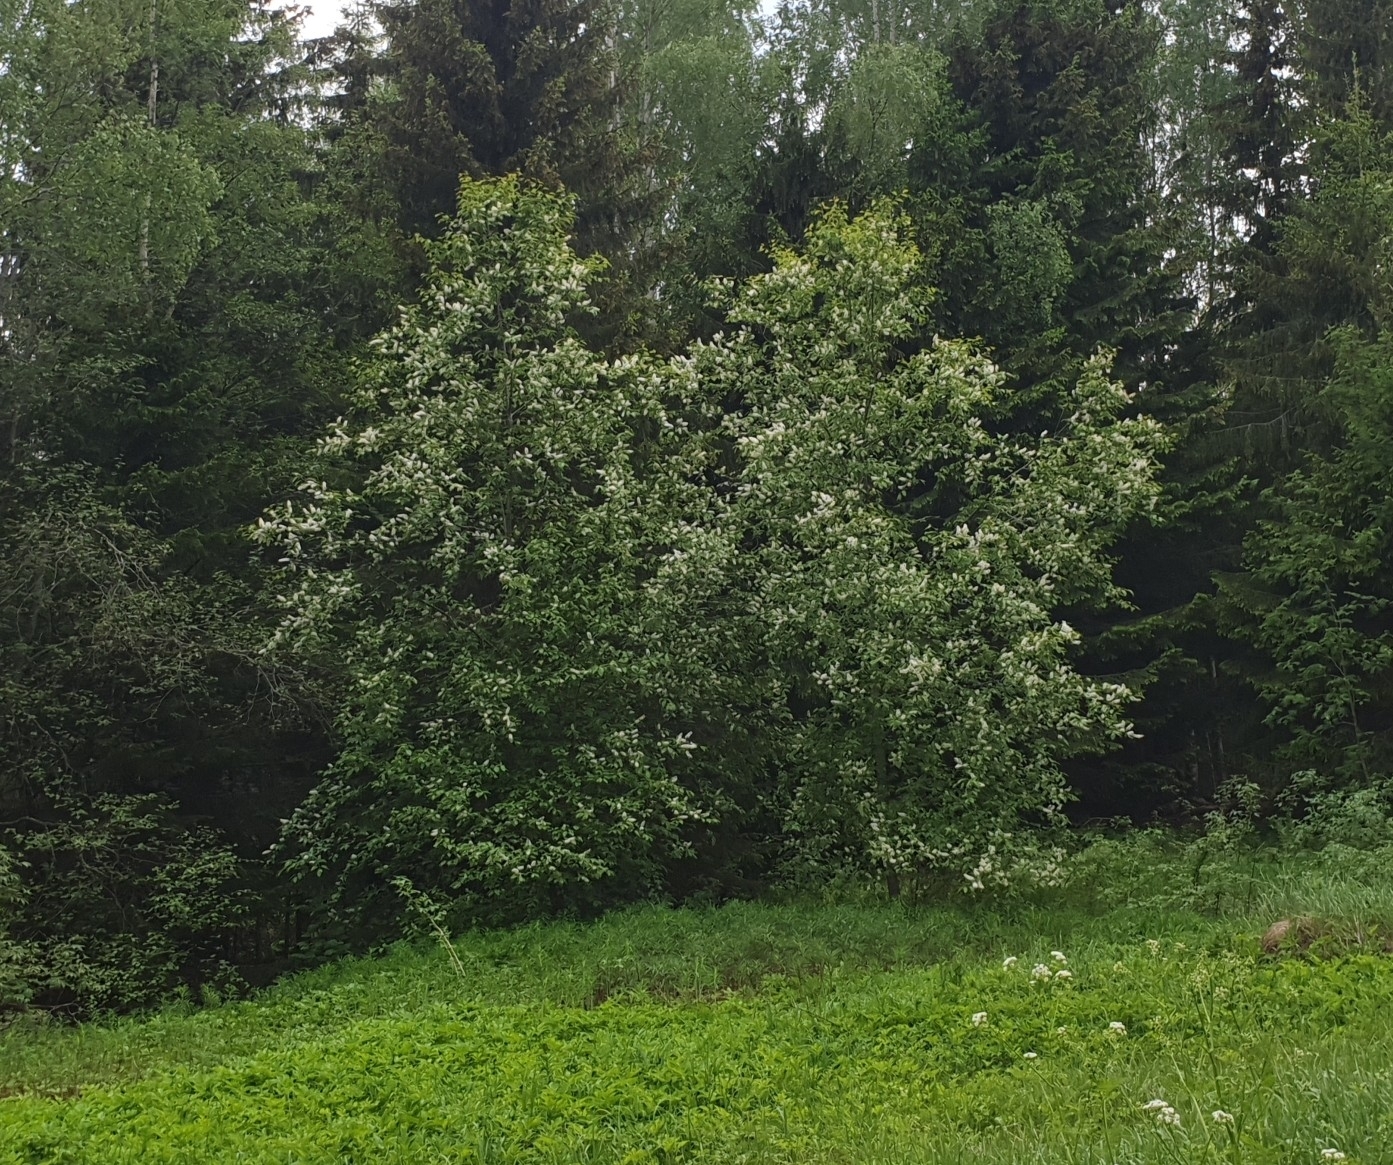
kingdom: Plantae
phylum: Tracheophyta
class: Magnoliopsida
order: Rosales
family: Rosaceae
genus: Prunus
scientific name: Prunus padus
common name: Bird cherry
